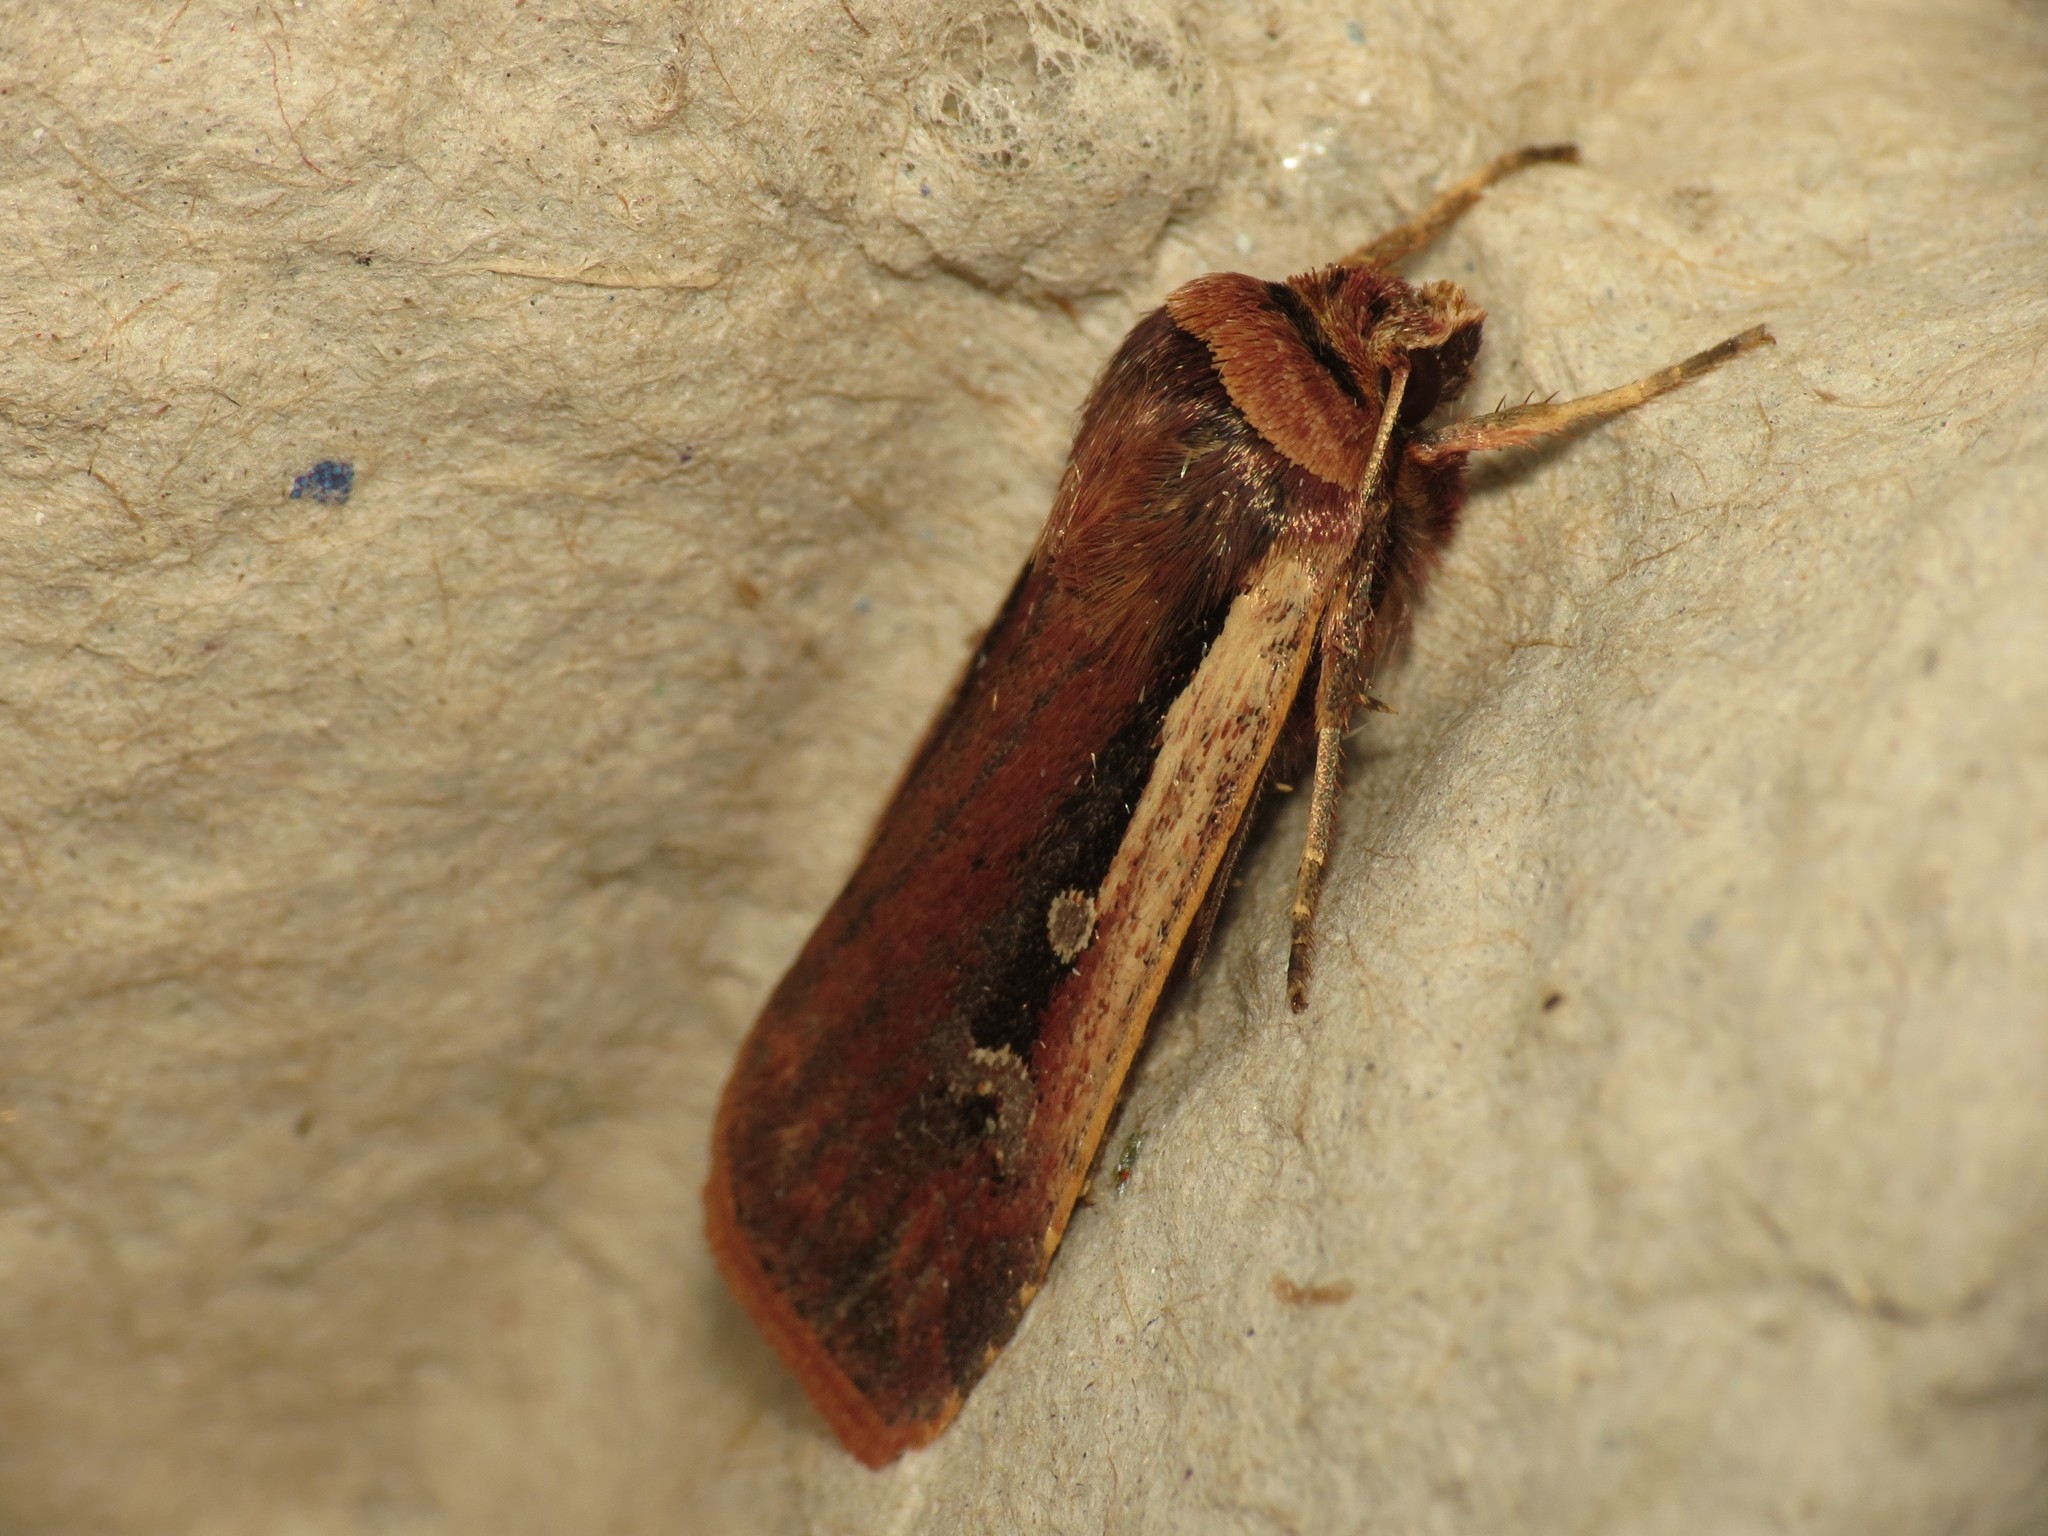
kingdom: Animalia
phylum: Arthropoda
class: Insecta
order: Lepidoptera
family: Noctuidae
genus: Ochropleura
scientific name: Ochropleura plecta
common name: Flame shoulder
